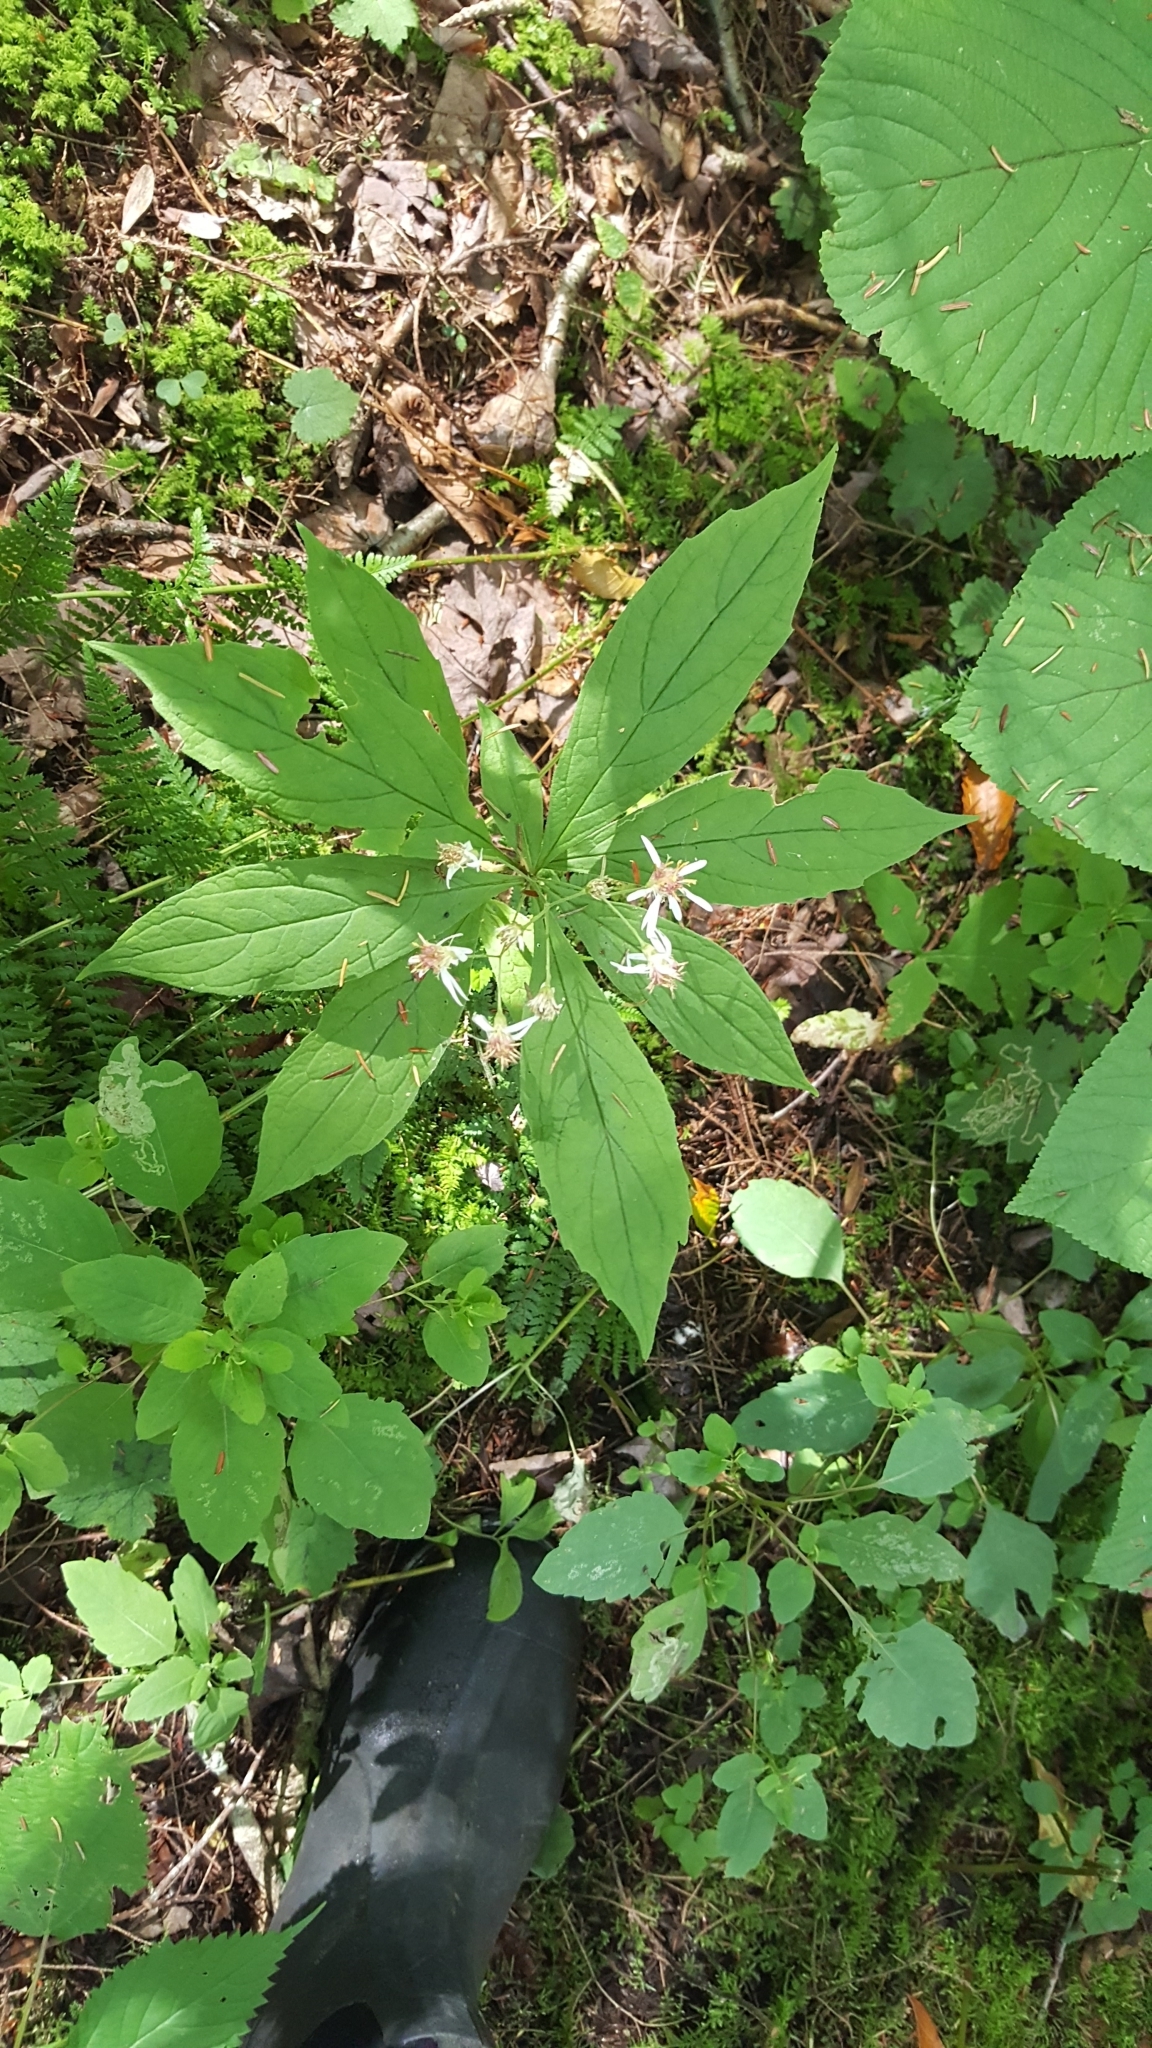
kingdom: Plantae
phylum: Tracheophyta
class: Magnoliopsida
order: Asterales
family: Asteraceae
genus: Oclemena
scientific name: Oclemena acuminata
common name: Mountain aster
